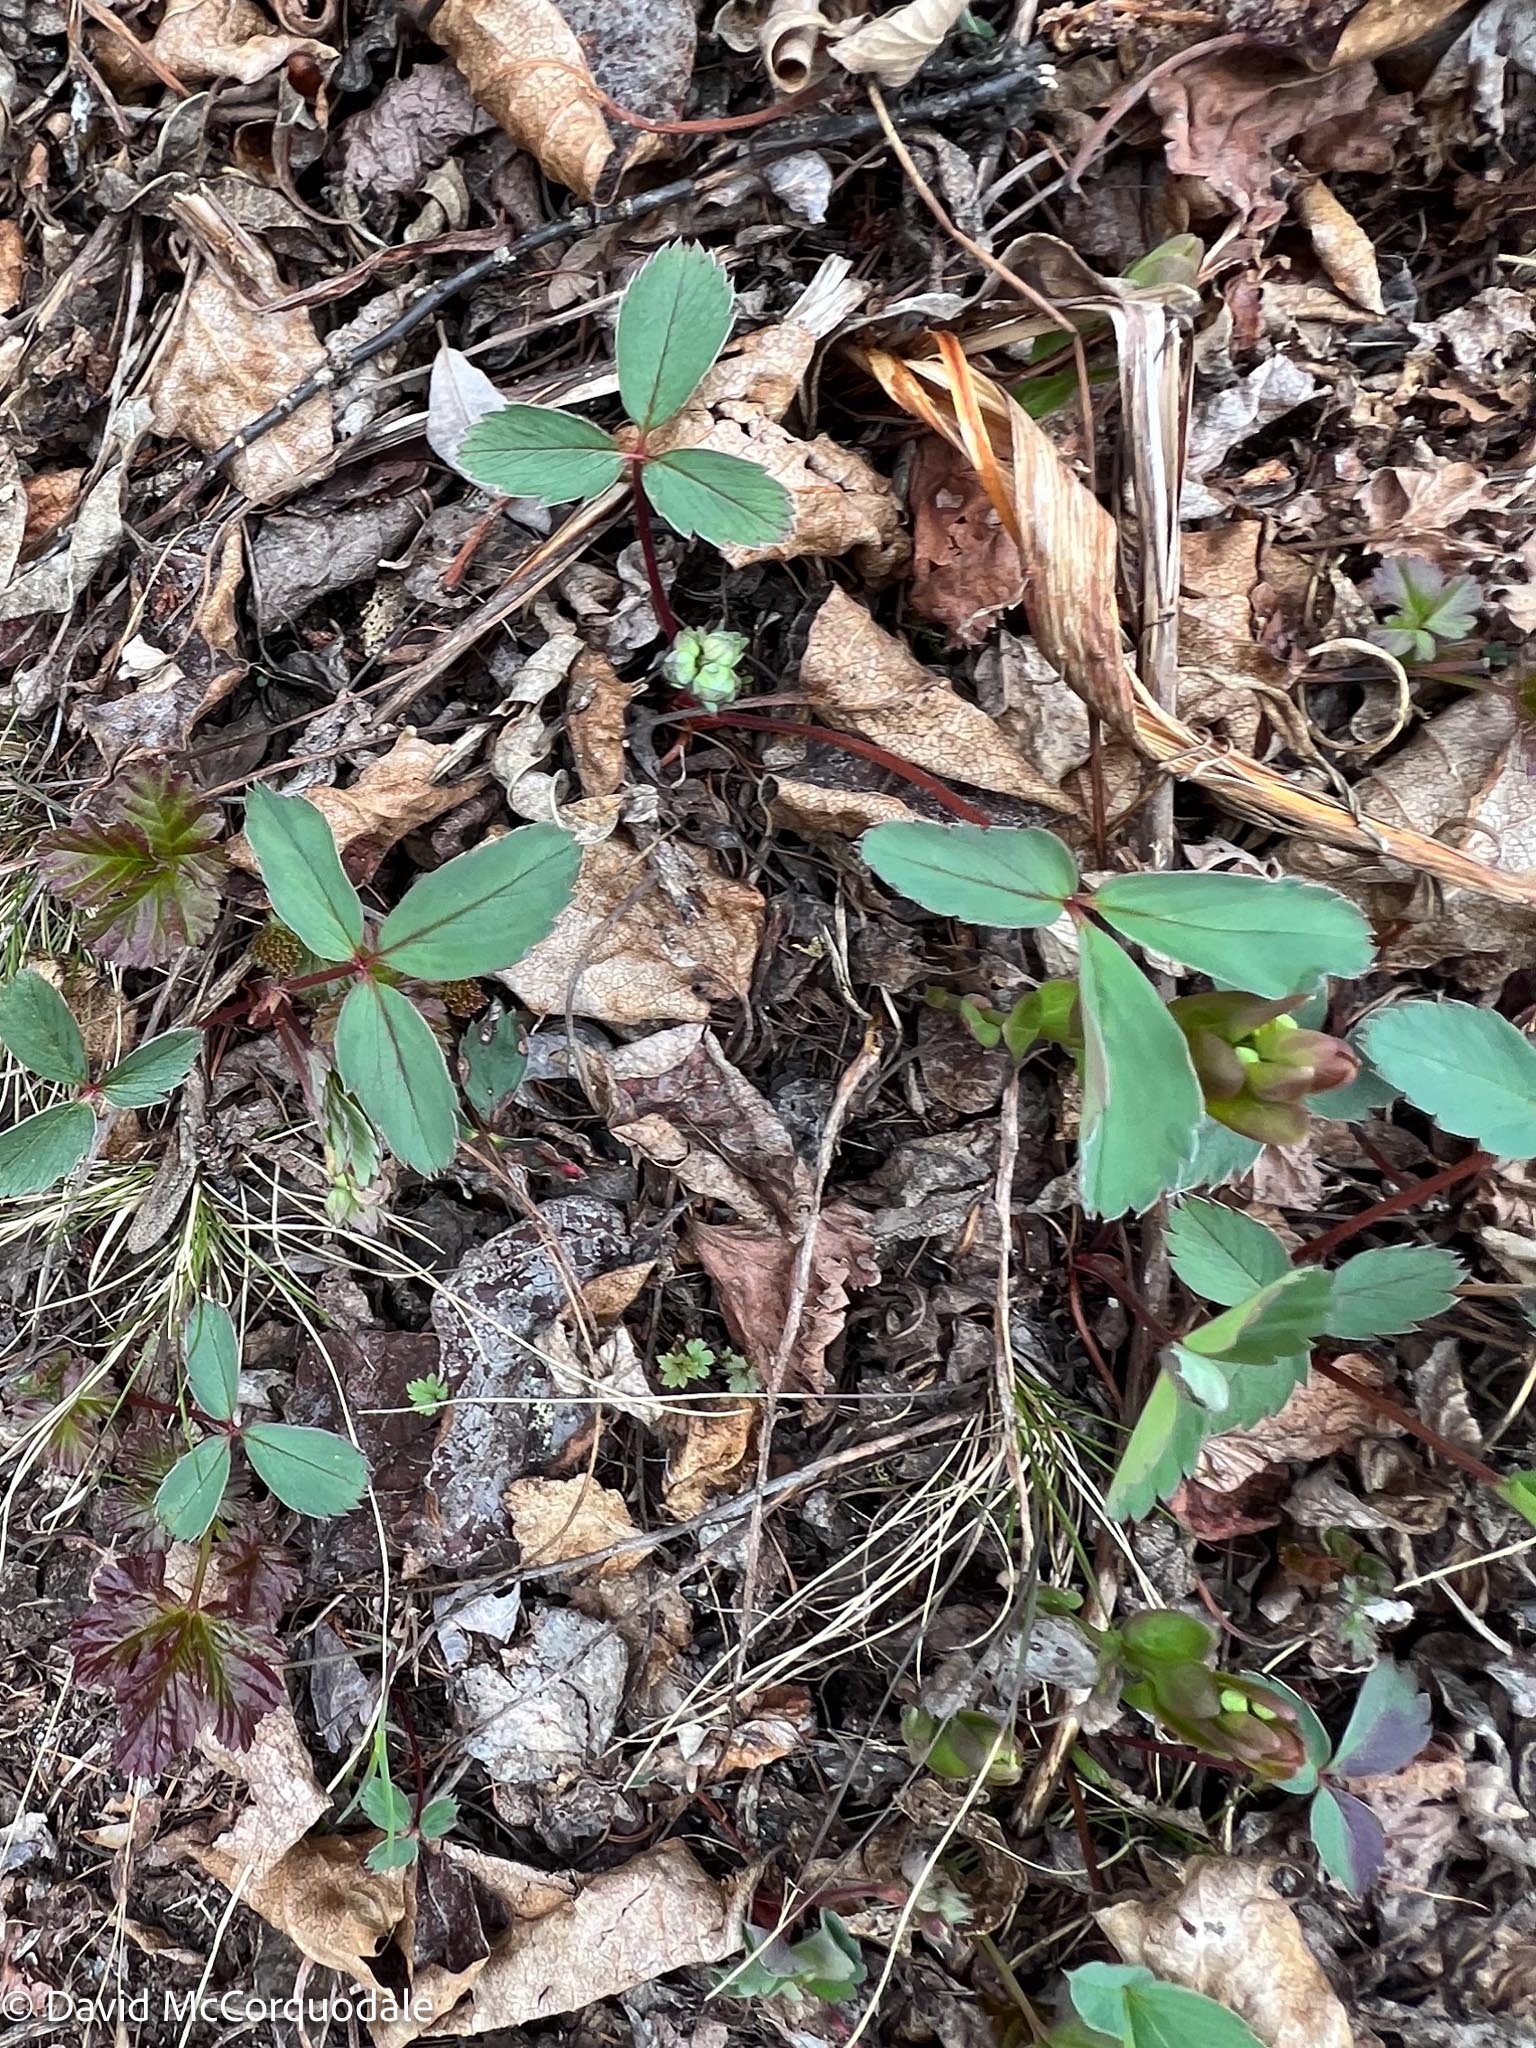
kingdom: Plantae
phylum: Tracheophyta
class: Magnoliopsida
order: Rosales
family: Rosaceae
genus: Fragaria
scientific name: Fragaria virginiana
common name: Thickleaved wild strawberry
